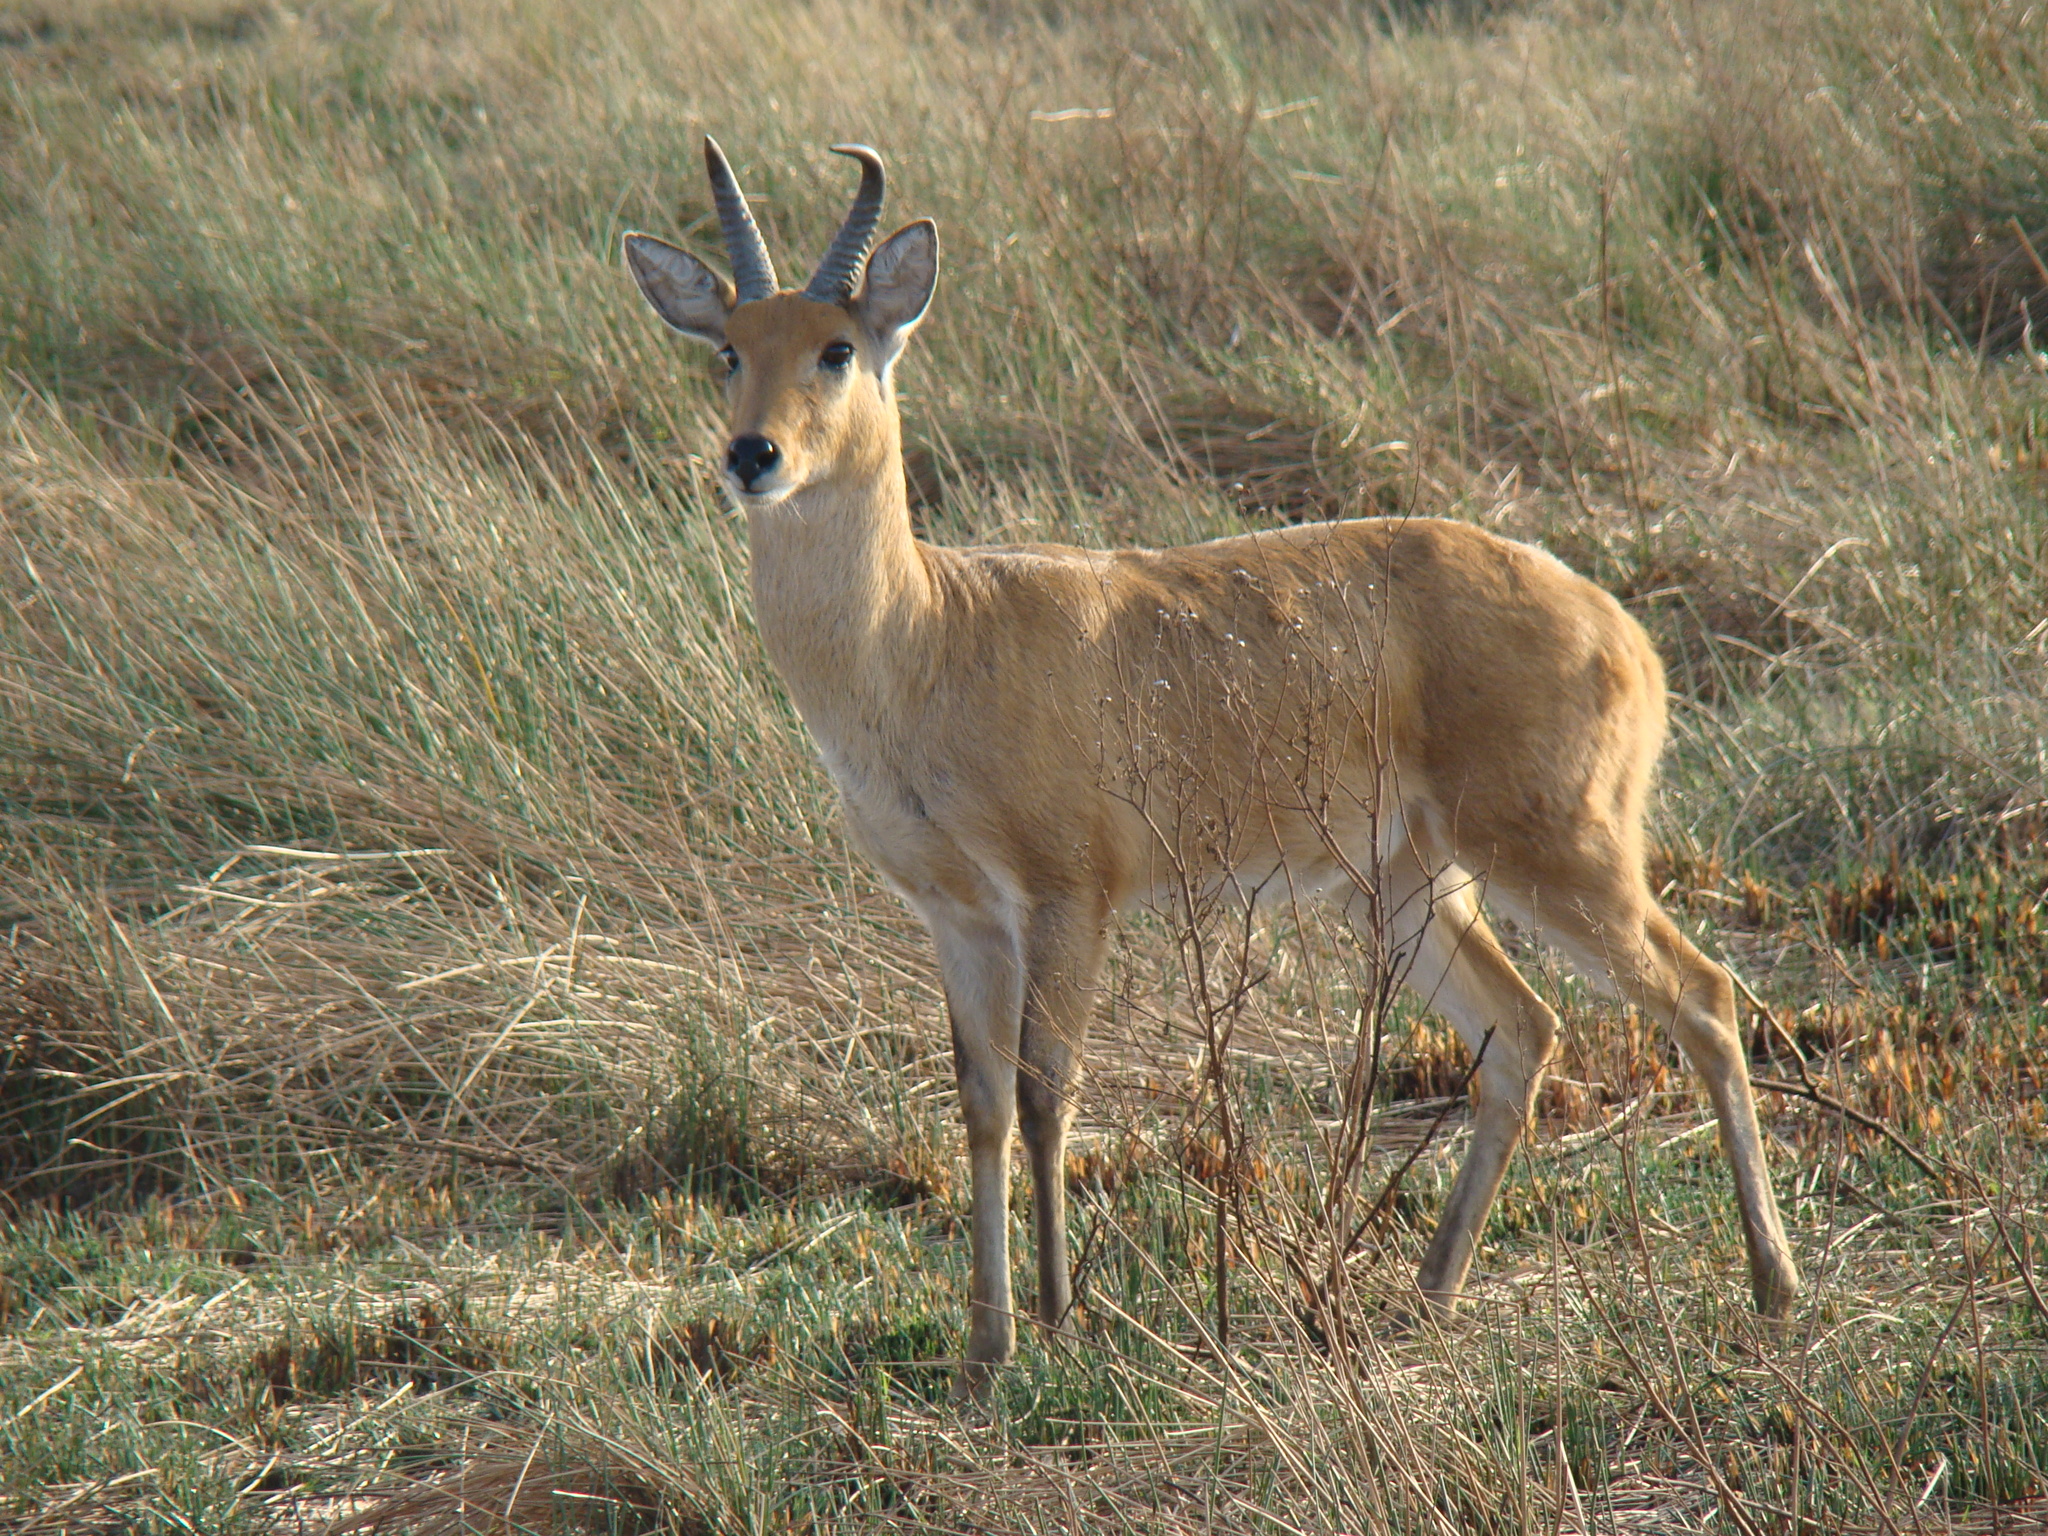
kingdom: Animalia
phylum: Chordata
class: Mammalia
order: Artiodactyla
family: Bovidae
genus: Redunca
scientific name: Redunca redunca
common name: Common reedbuck
